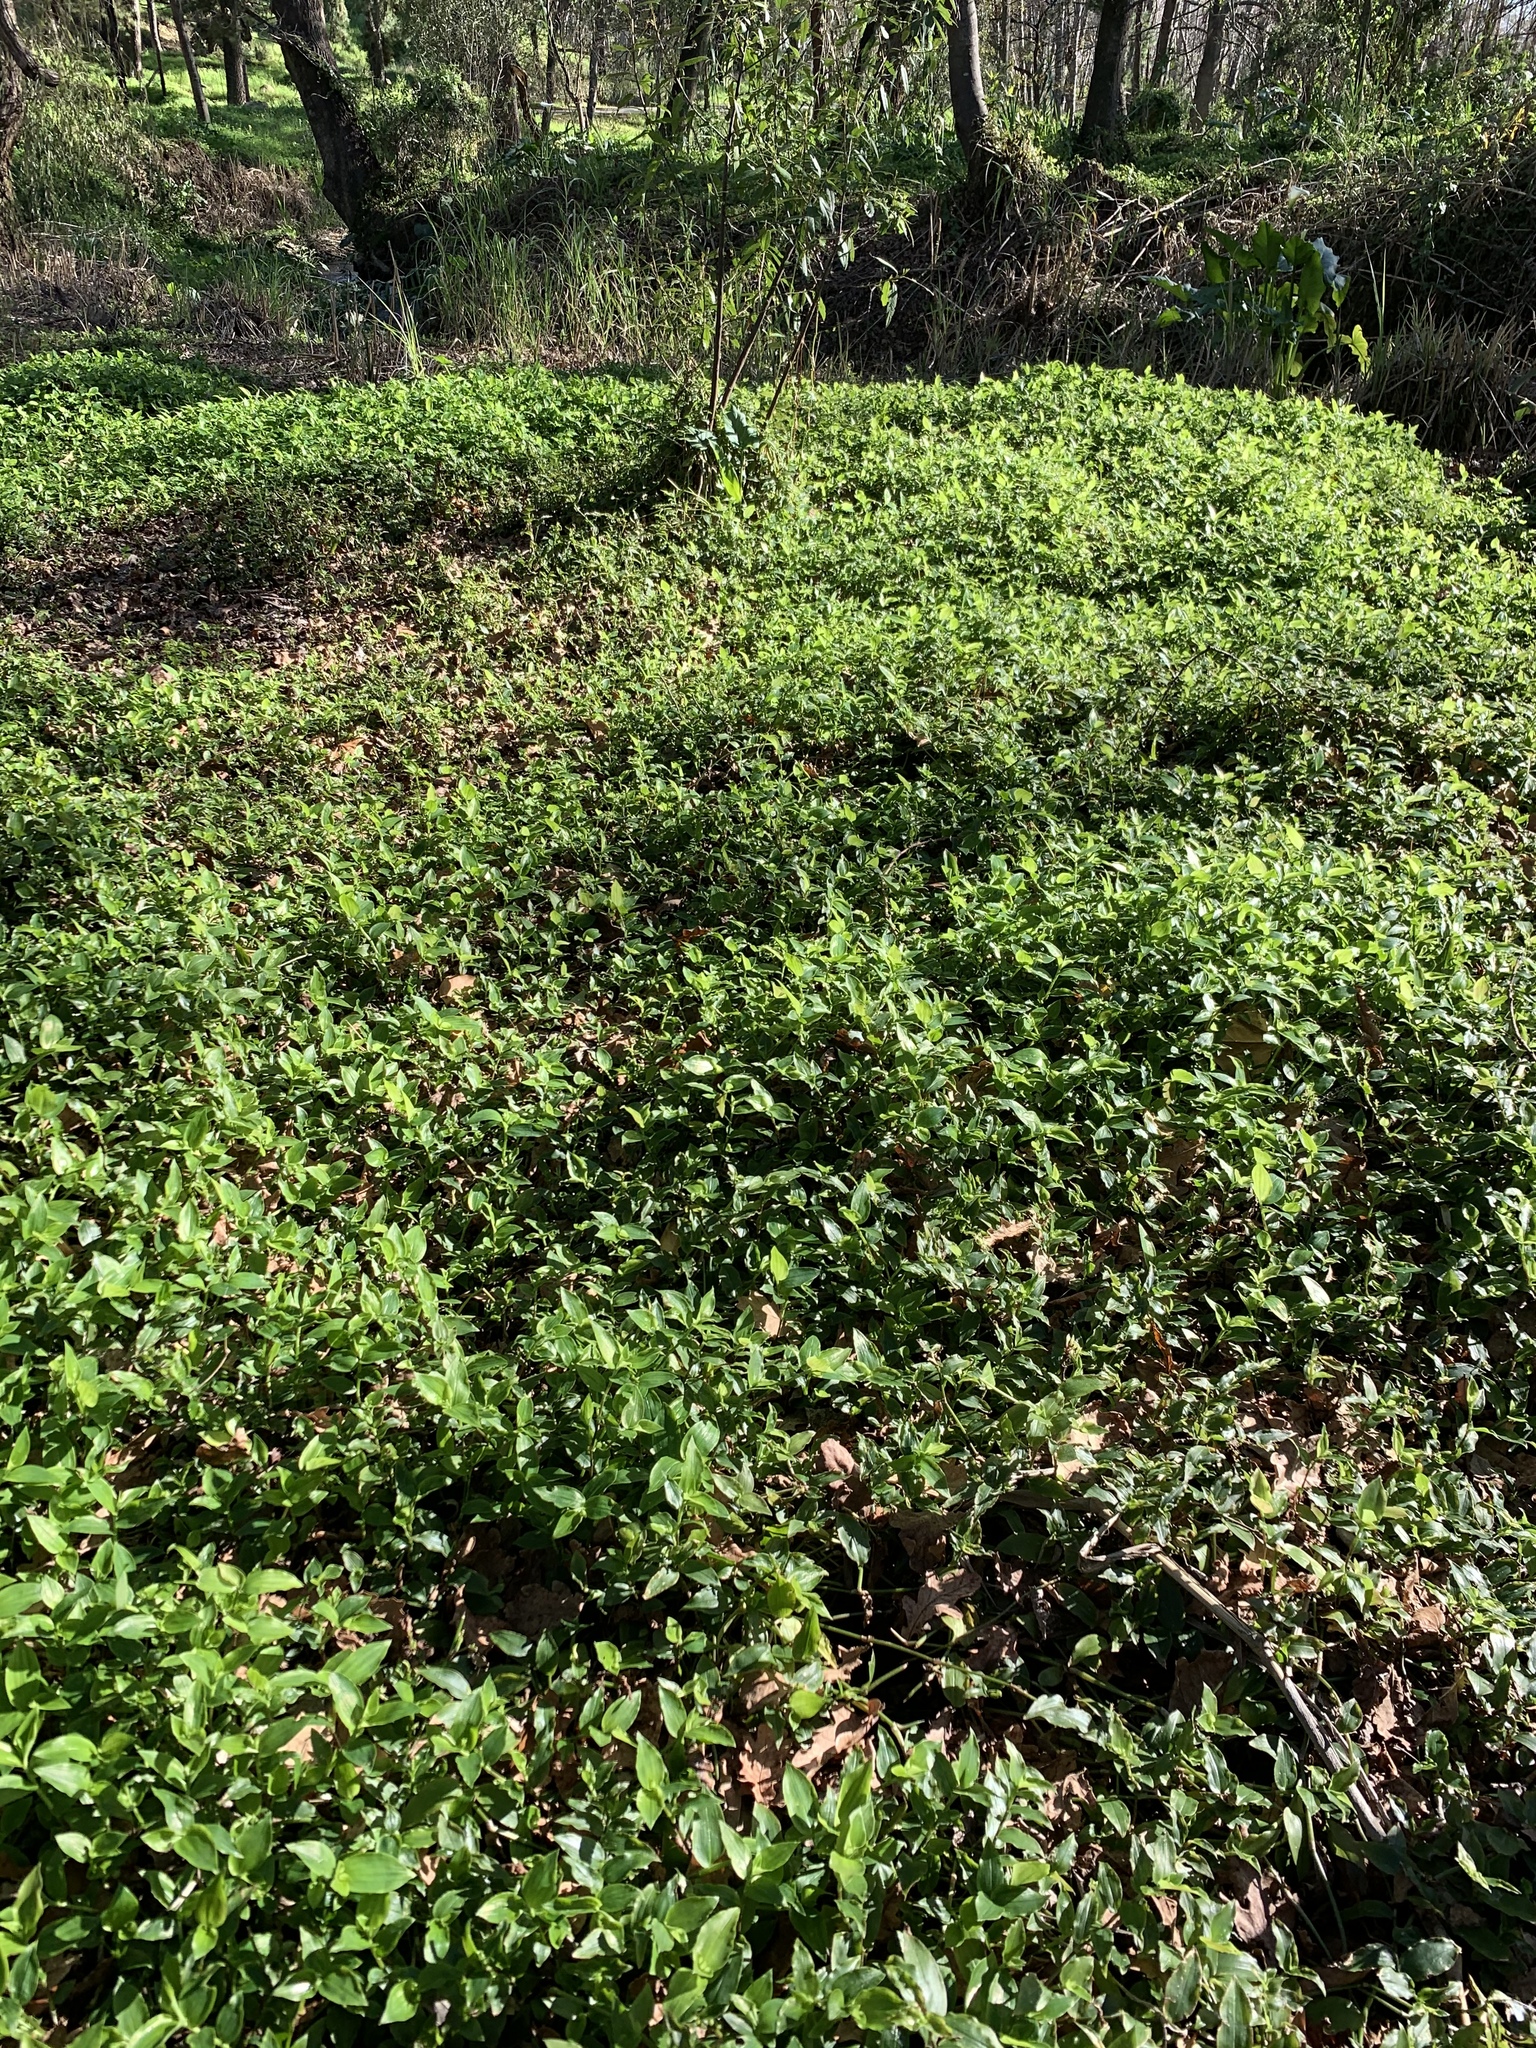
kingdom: Plantae
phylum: Tracheophyta
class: Liliopsida
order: Commelinales
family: Commelinaceae
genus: Tradescantia
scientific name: Tradescantia fluminensis
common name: Wandering-jew
